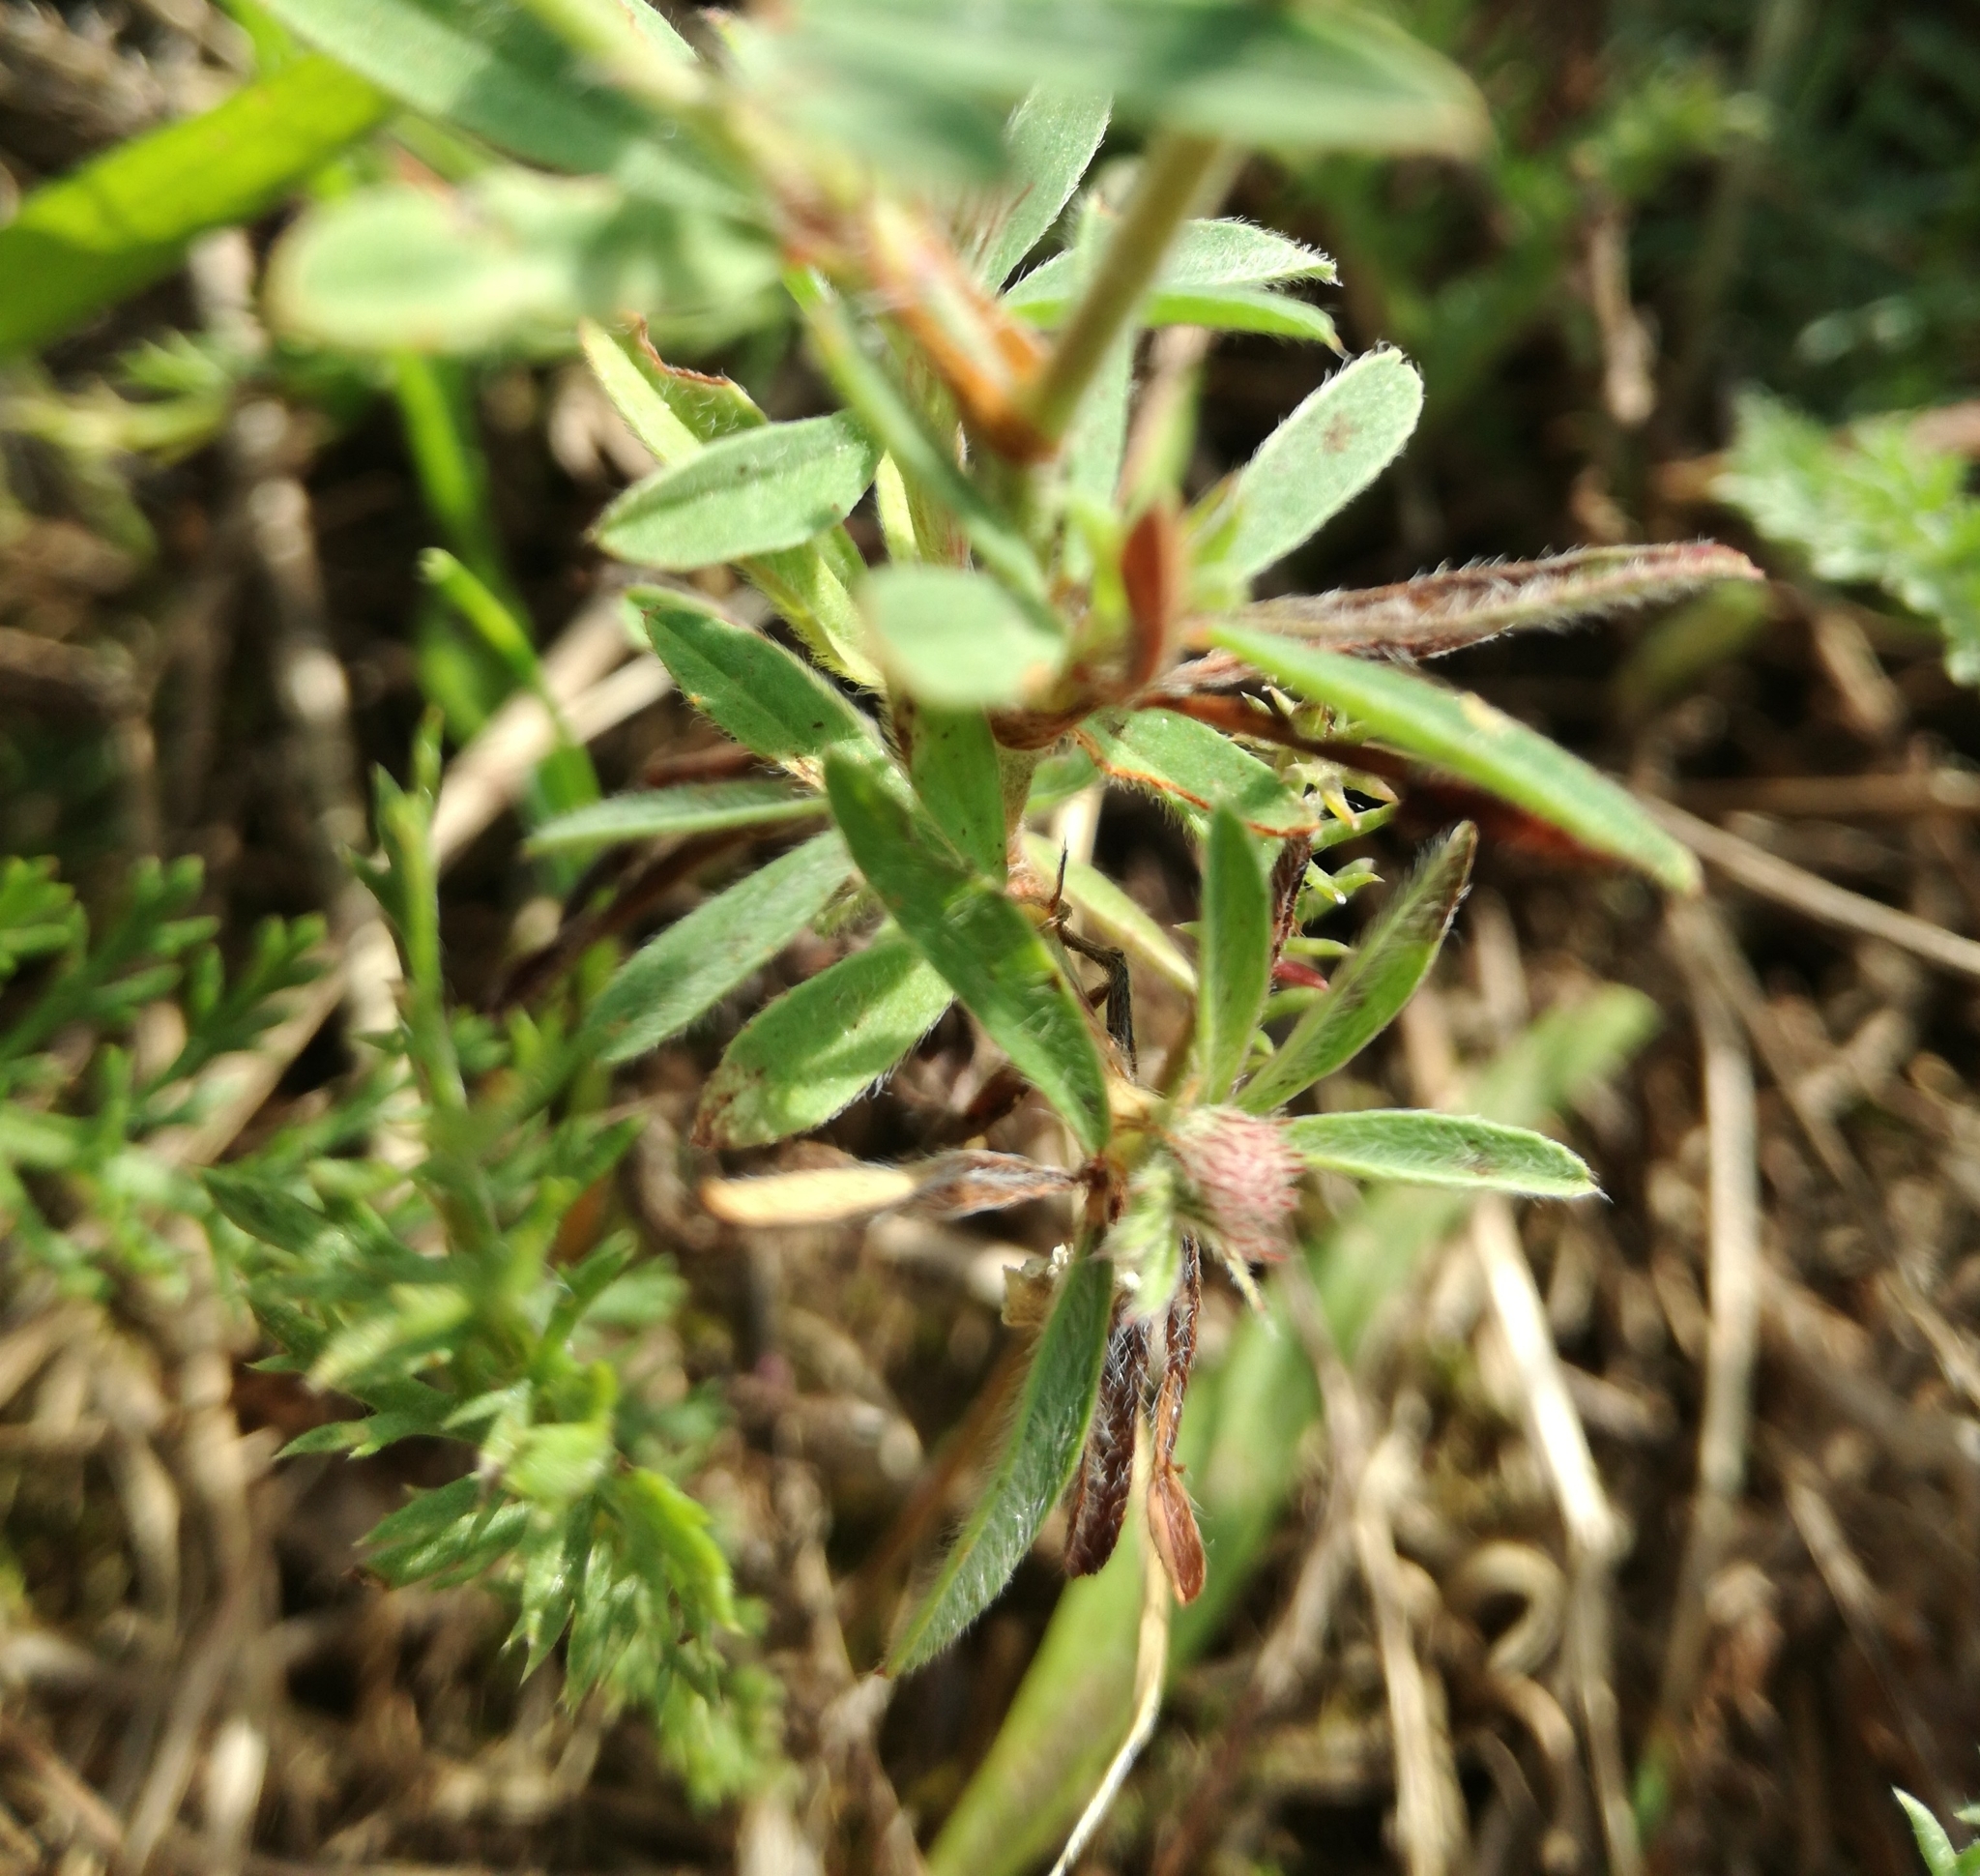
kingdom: Plantae
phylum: Tracheophyta
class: Magnoliopsida
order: Fabales
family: Fabaceae
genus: Trifolium
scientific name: Trifolium arvense
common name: Hare's-foot clover
